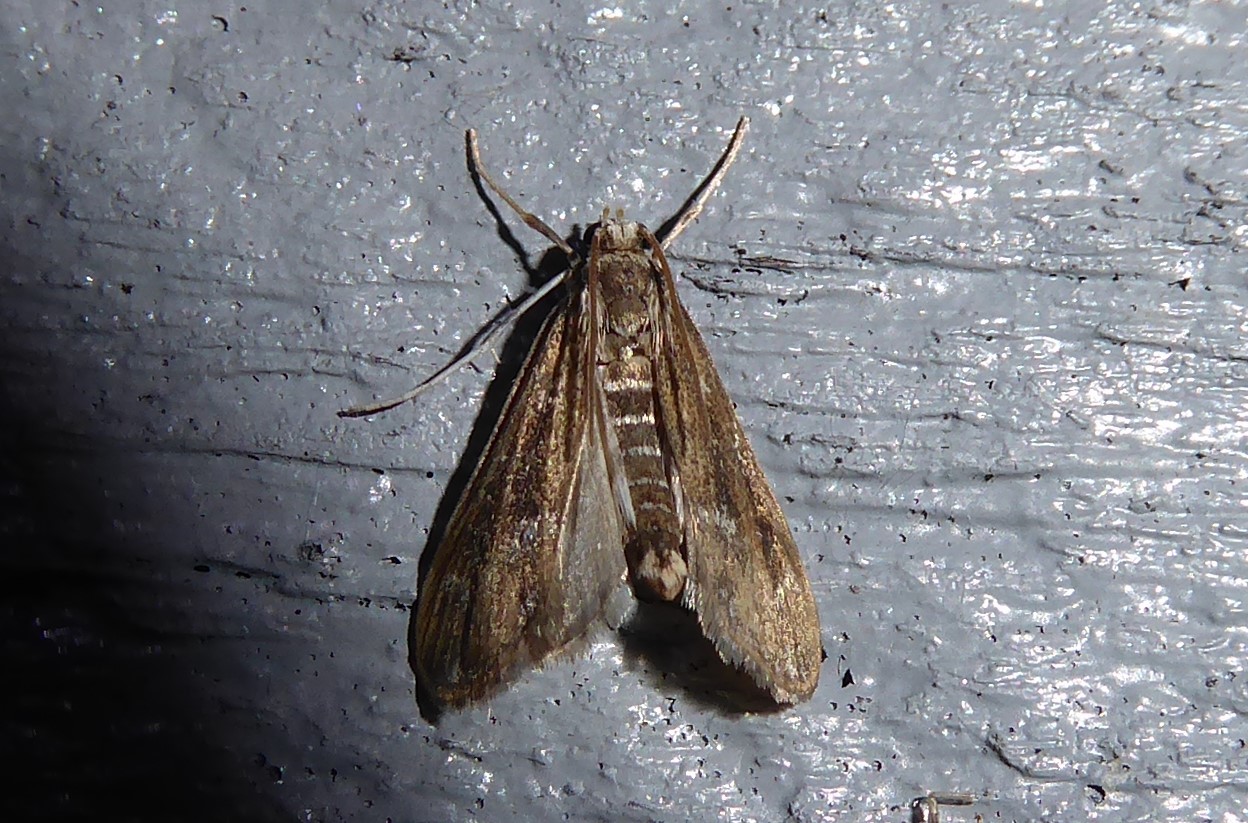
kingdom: Animalia
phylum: Arthropoda
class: Insecta
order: Lepidoptera
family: Crambidae
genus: Hygraula
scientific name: Hygraula nitens
